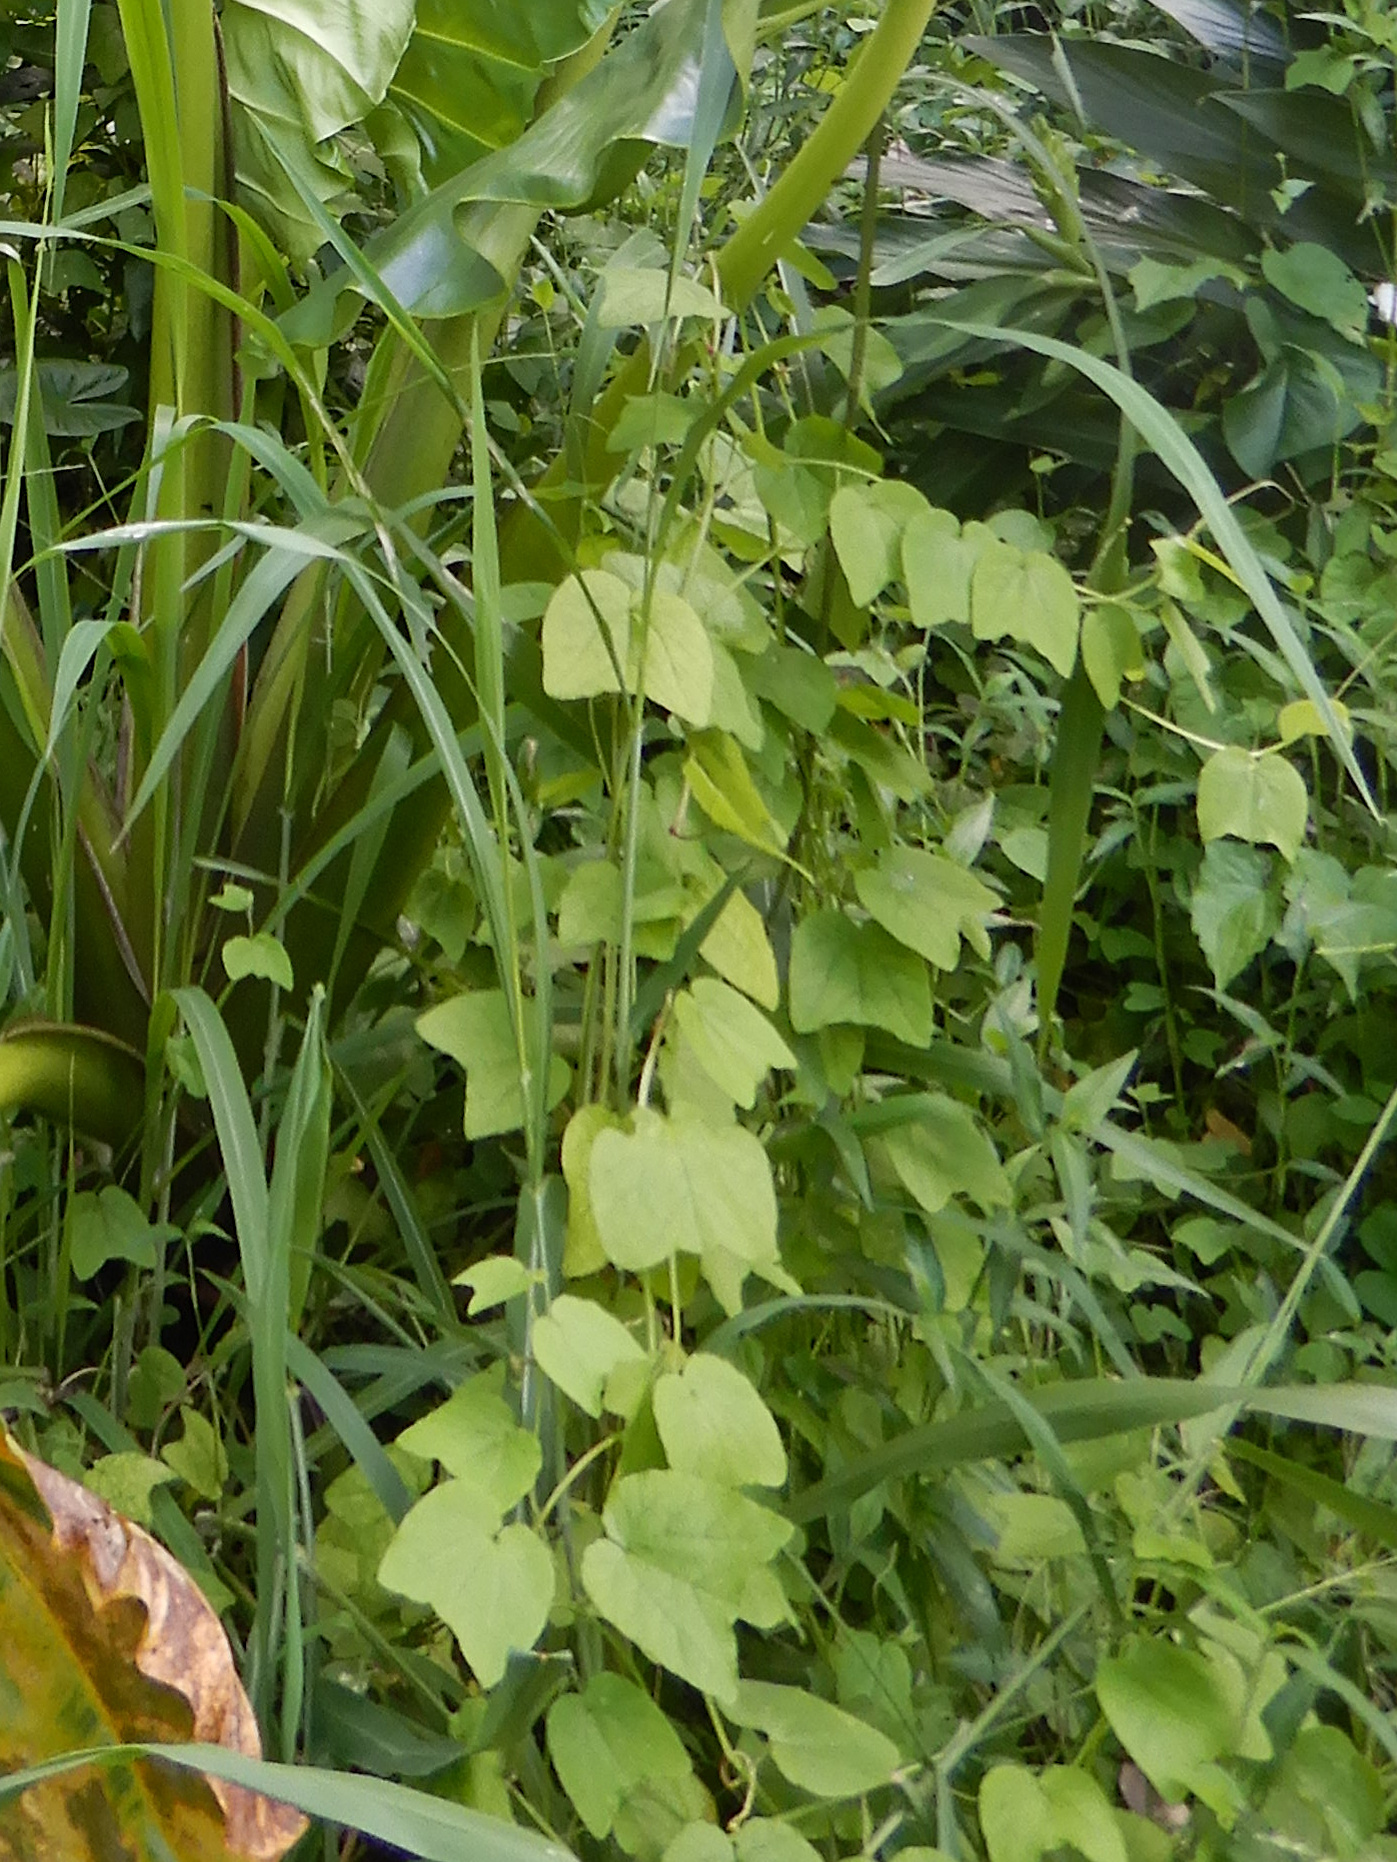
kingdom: Plantae
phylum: Tracheophyta
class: Magnoliopsida
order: Malpighiales
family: Passifloraceae
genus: Passiflora
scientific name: Passiflora rubra
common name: Snakeberry vine
